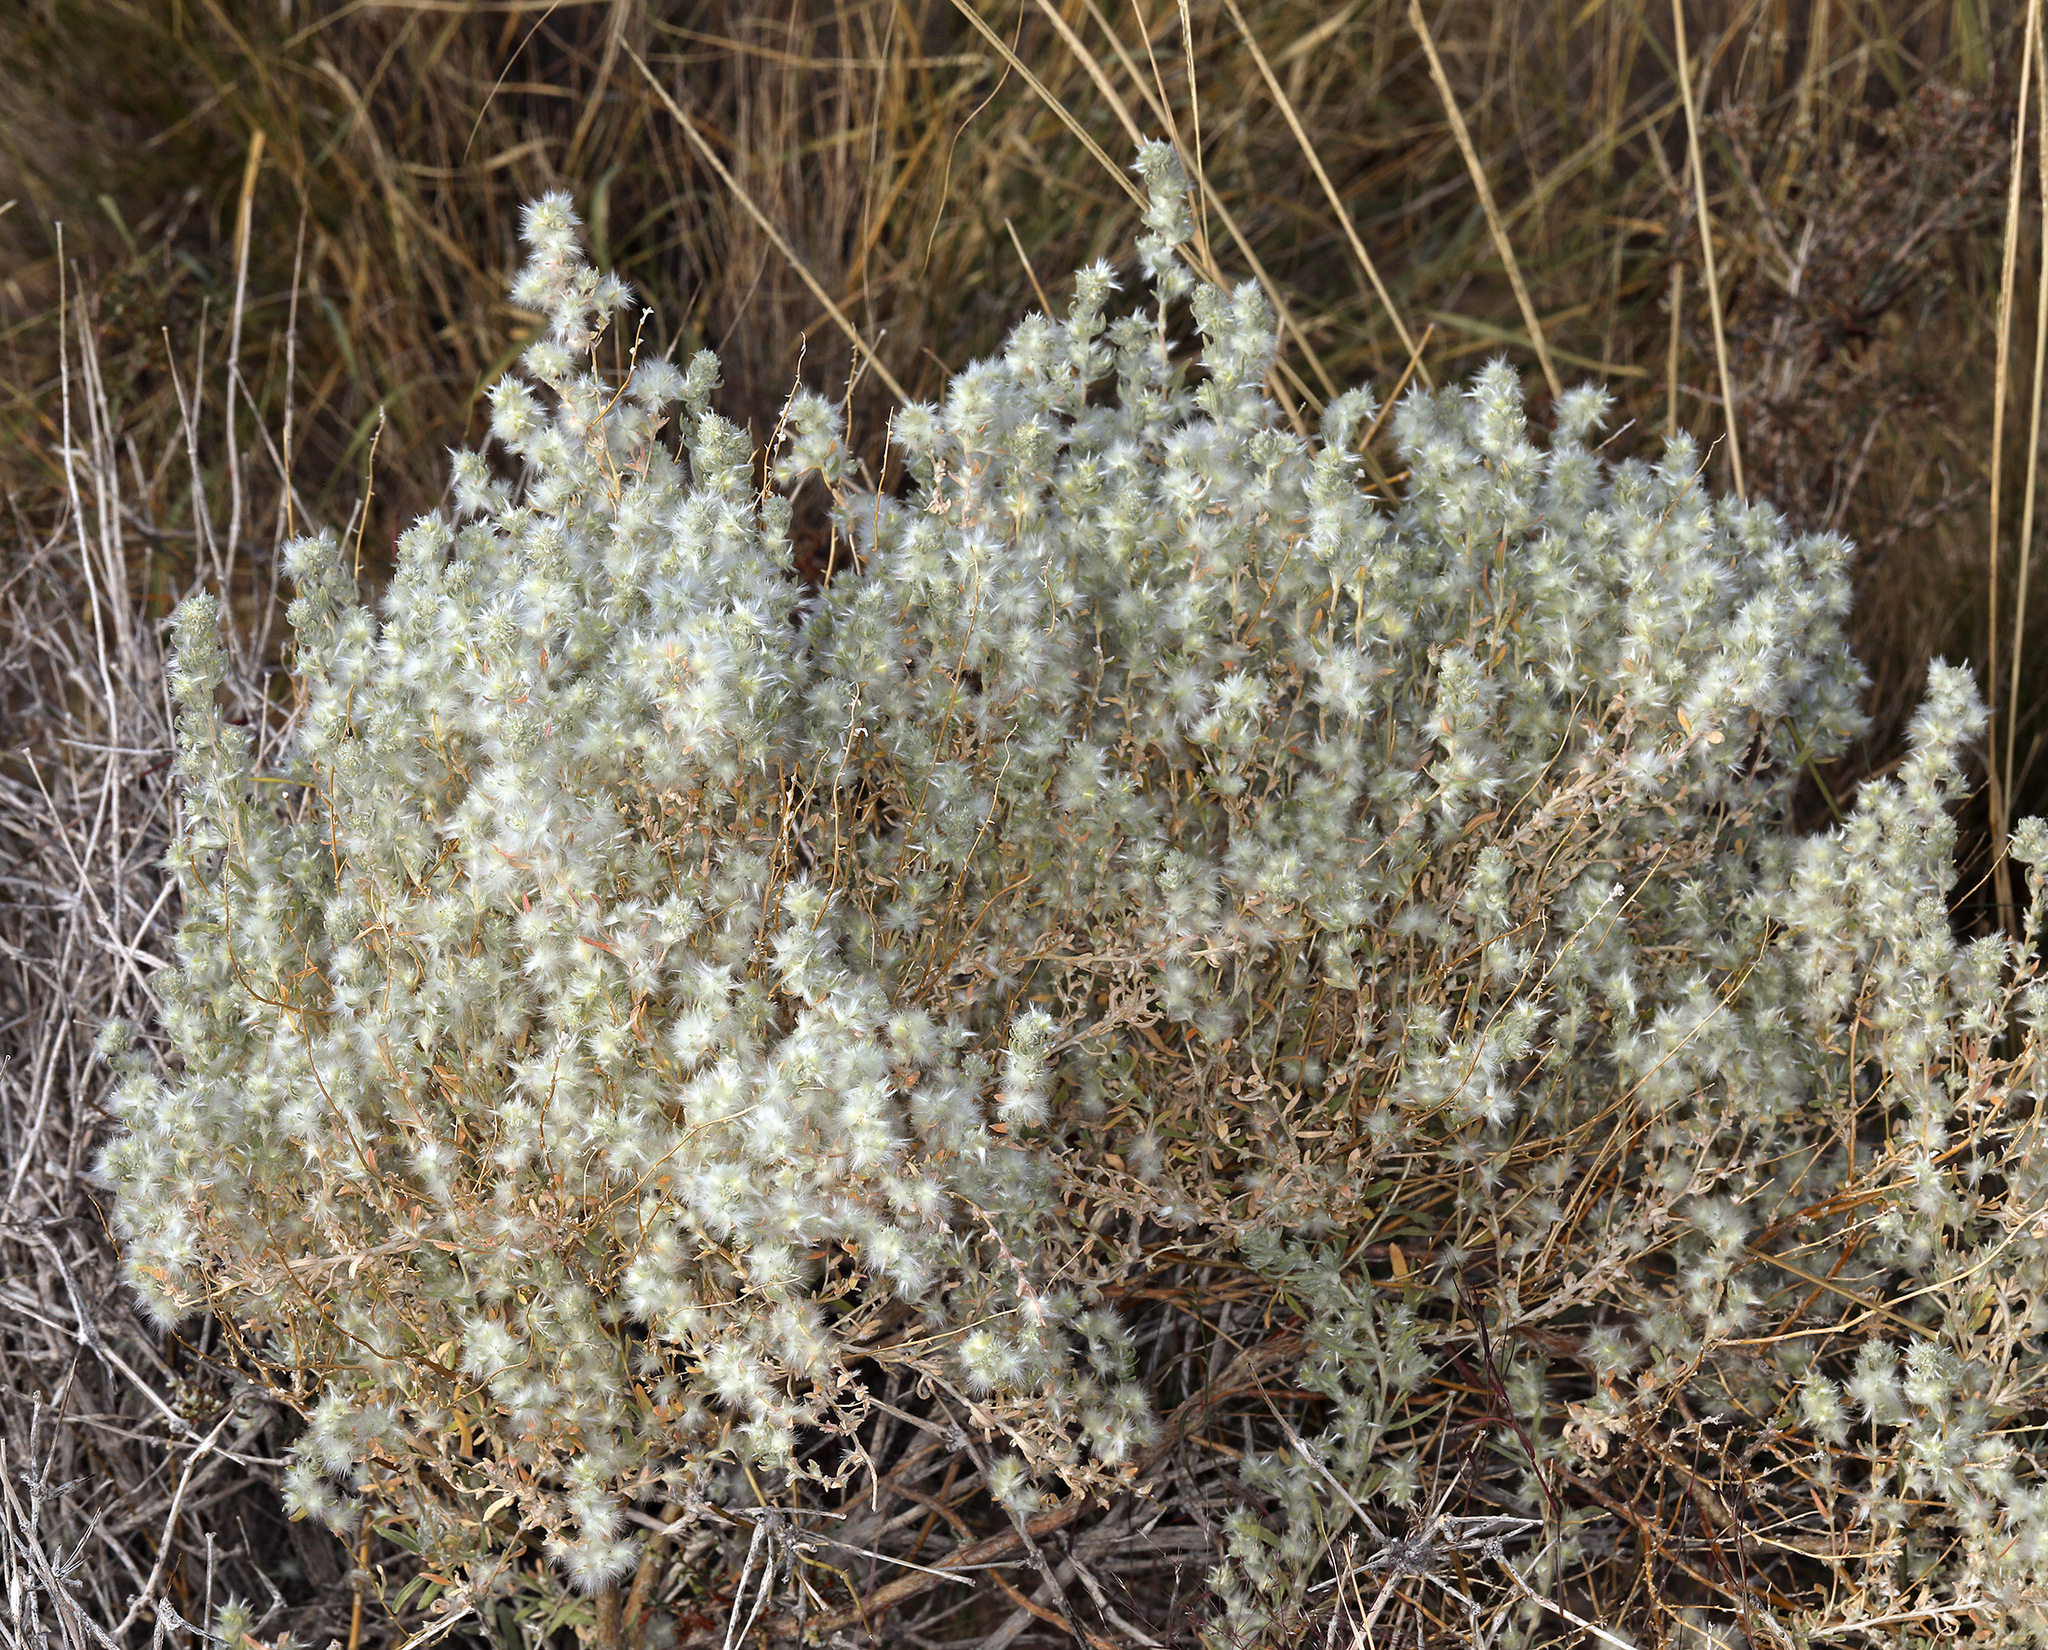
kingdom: Plantae
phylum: Tracheophyta
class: Magnoliopsida
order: Caryophyllales
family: Amaranthaceae
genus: Krascheninnikovia
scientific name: Krascheninnikovia lanata
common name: Winterfat
